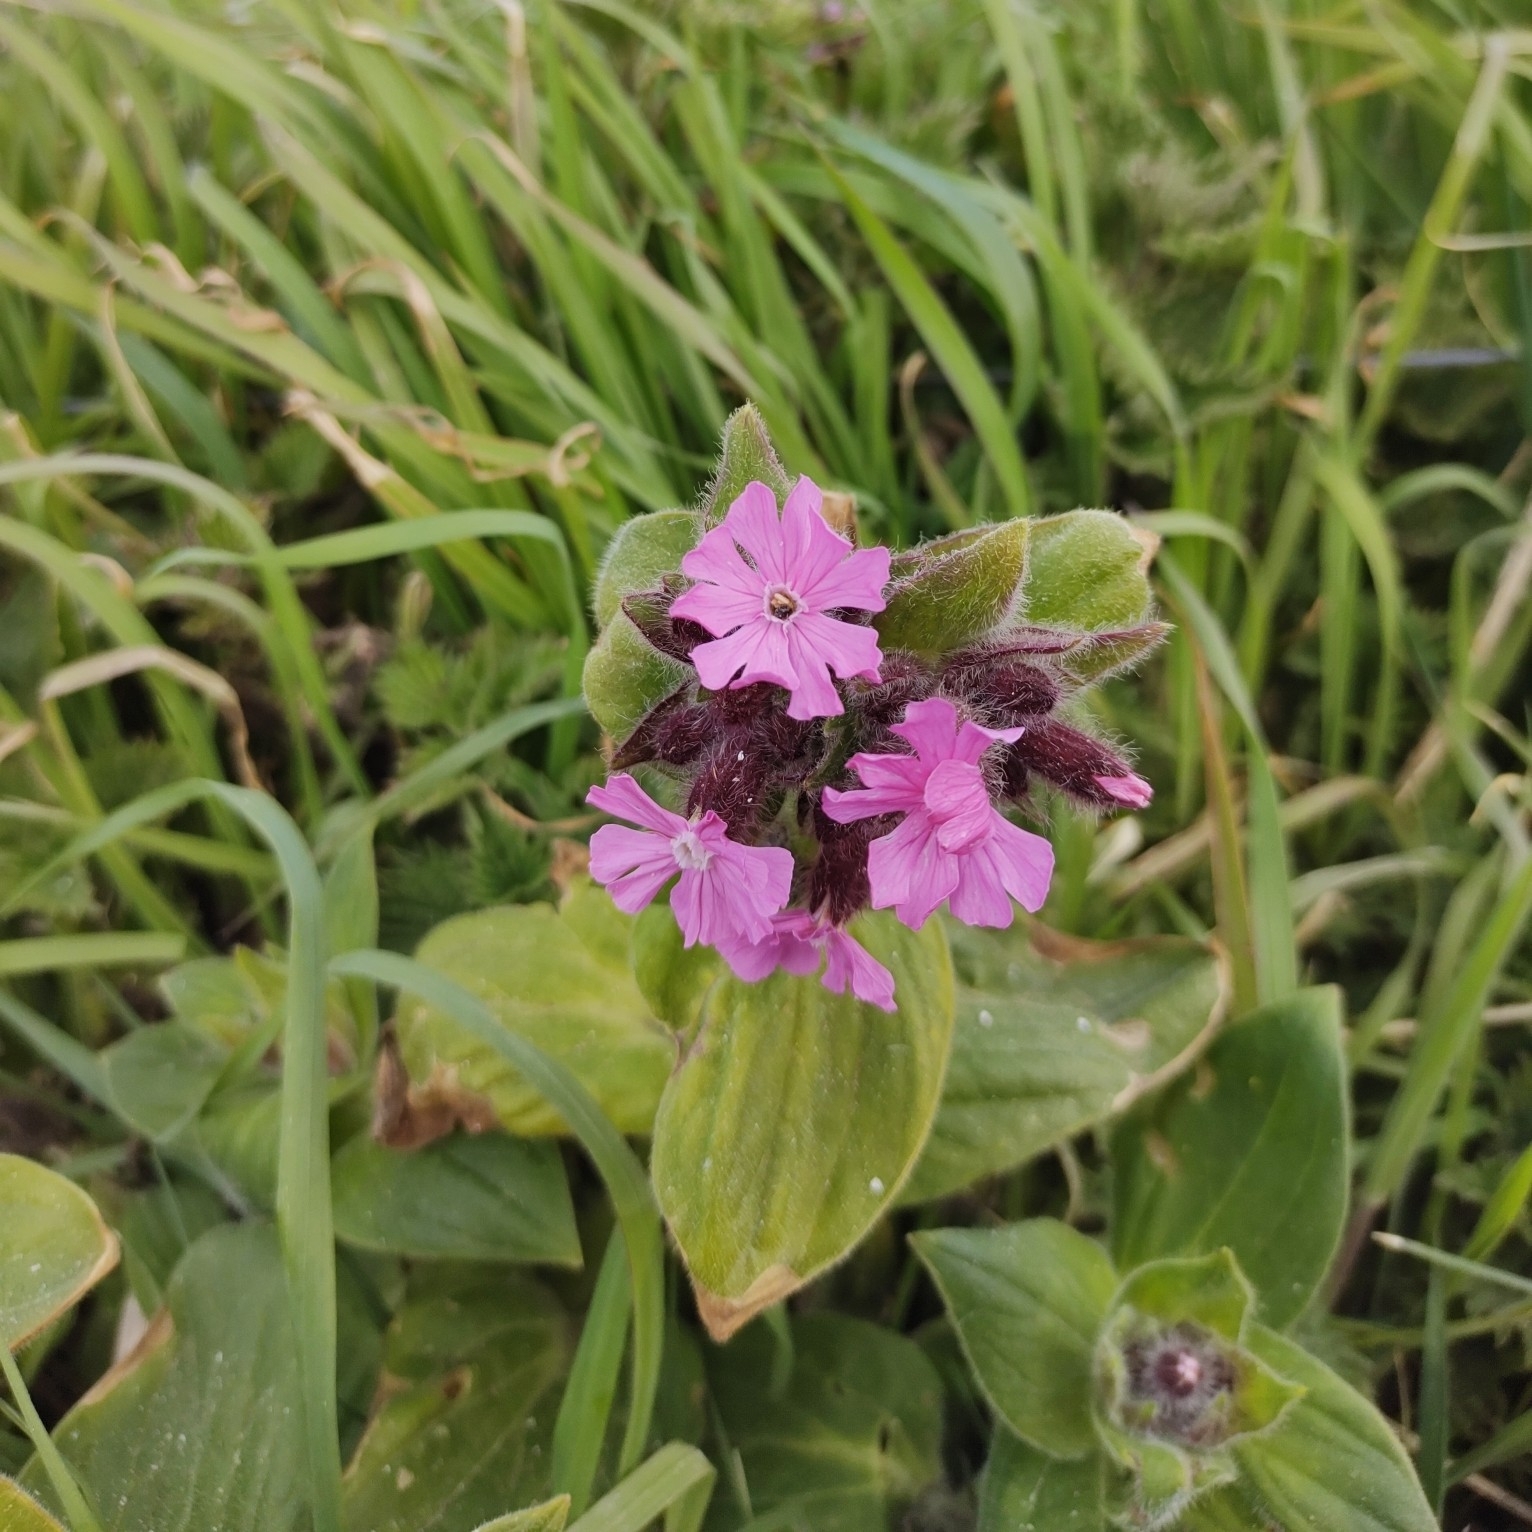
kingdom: Plantae
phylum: Tracheophyta
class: Magnoliopsida
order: Caryophyllales
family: Caryophyllaceae
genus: Silene
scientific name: Silene dioica
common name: Red campion
